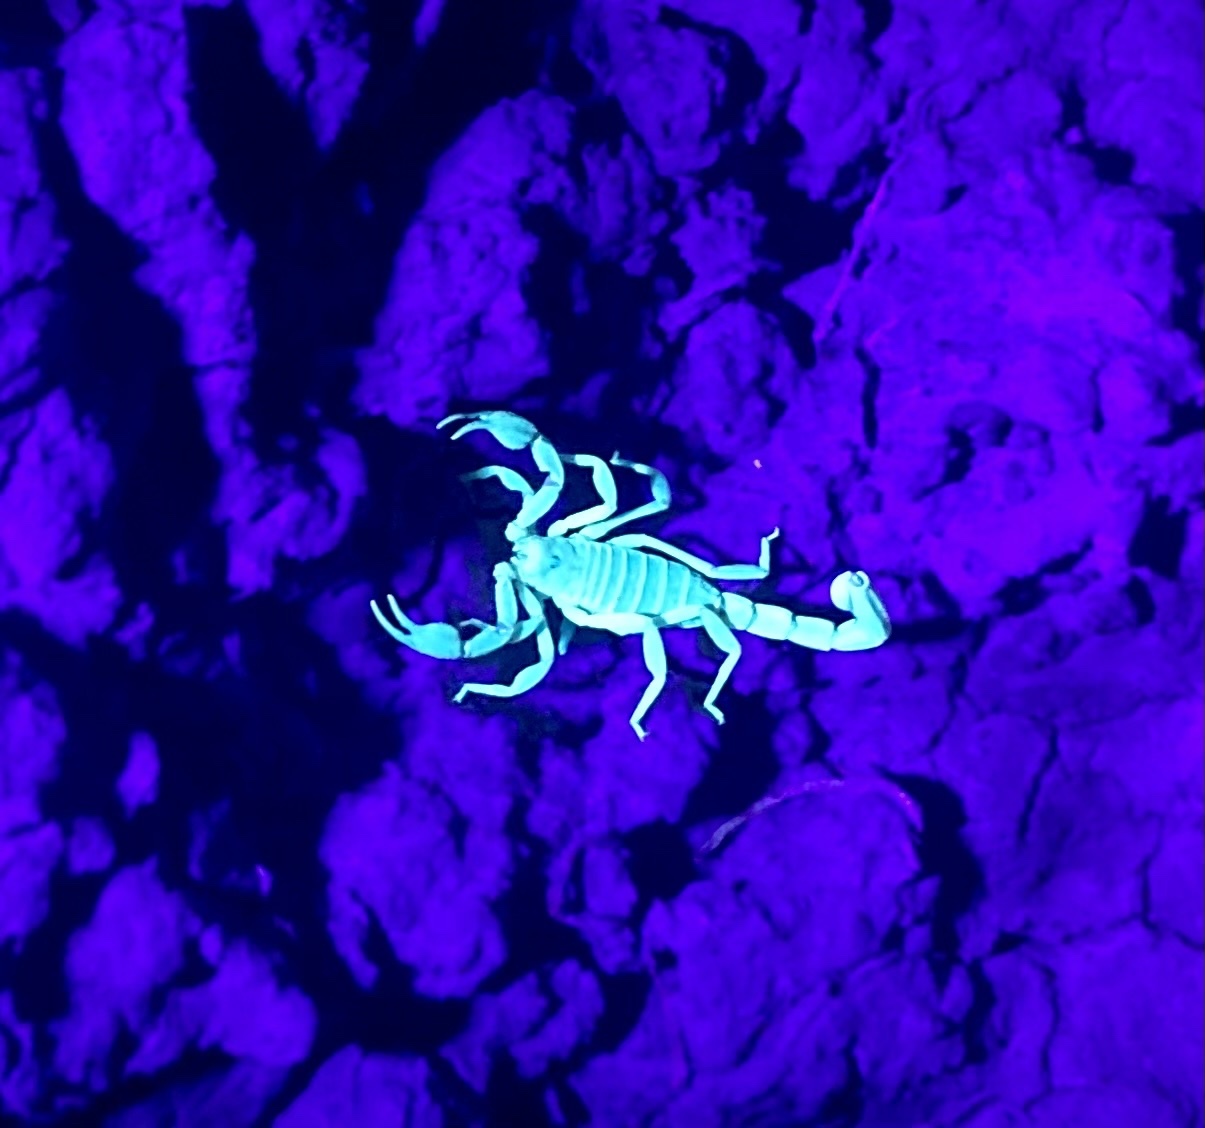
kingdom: Animalia
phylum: Arthropoda
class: Arachnida
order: Scorpiones
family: Vaejovidae
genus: Paruroctonus
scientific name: Paruroctonus boreus
